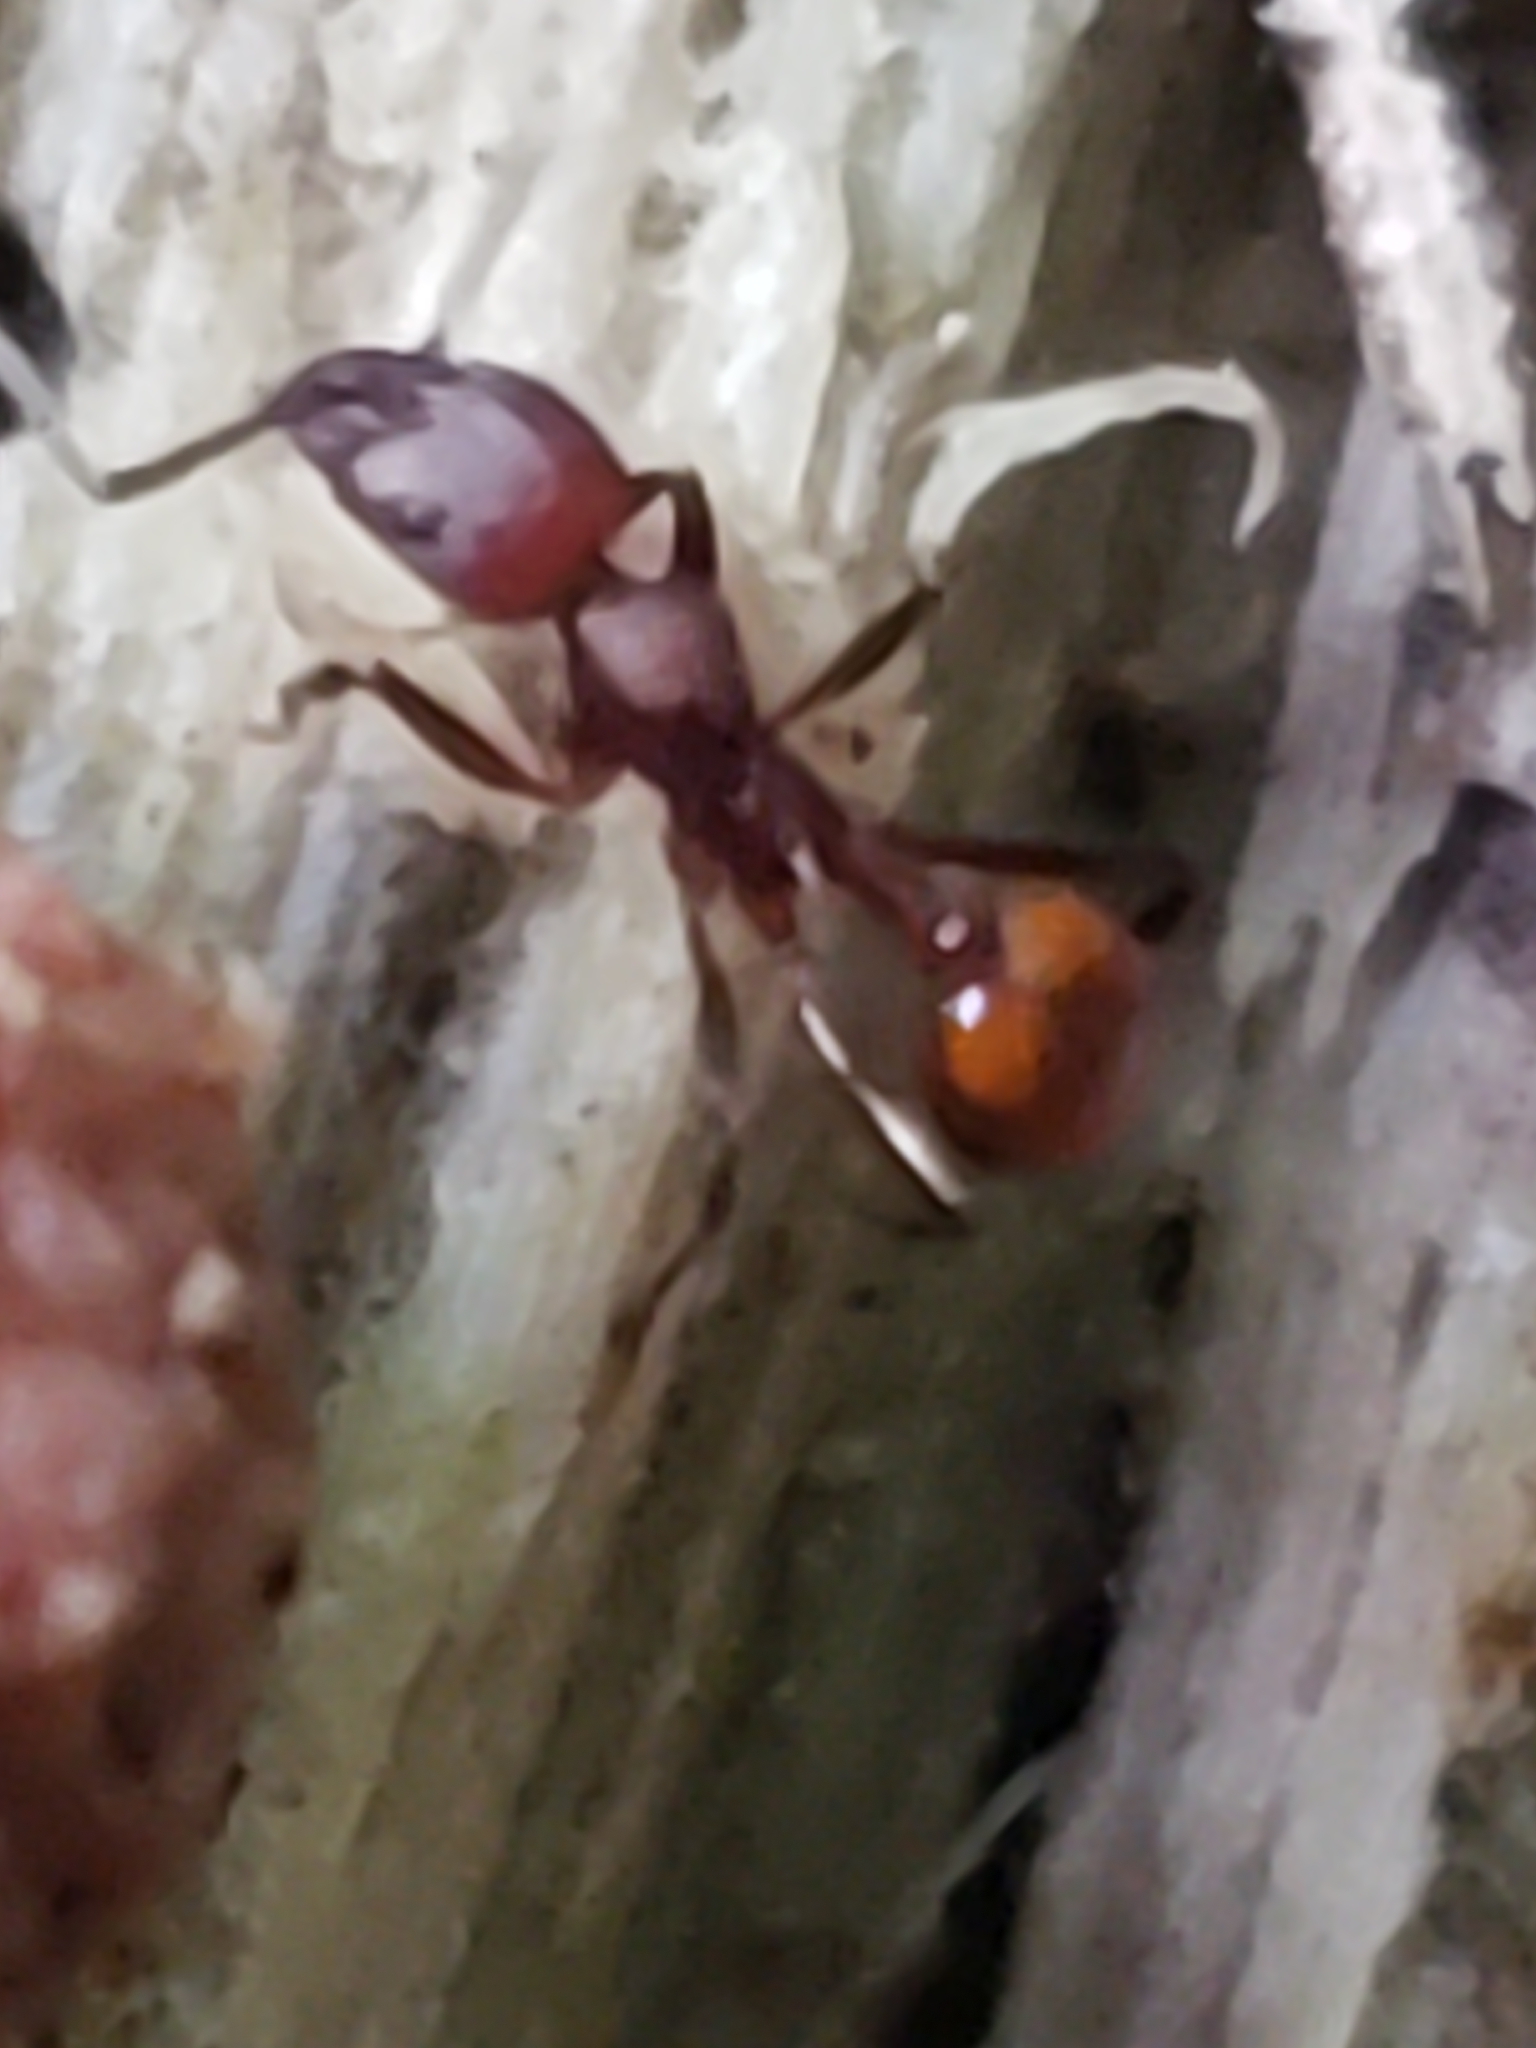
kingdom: Animalia
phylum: Arthropoda
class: Insecta
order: Hymenoptera
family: Formicidae
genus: Aphaenogaster
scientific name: Aphaenogaster tennesseensis
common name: Tennessee thread-waisted ant
